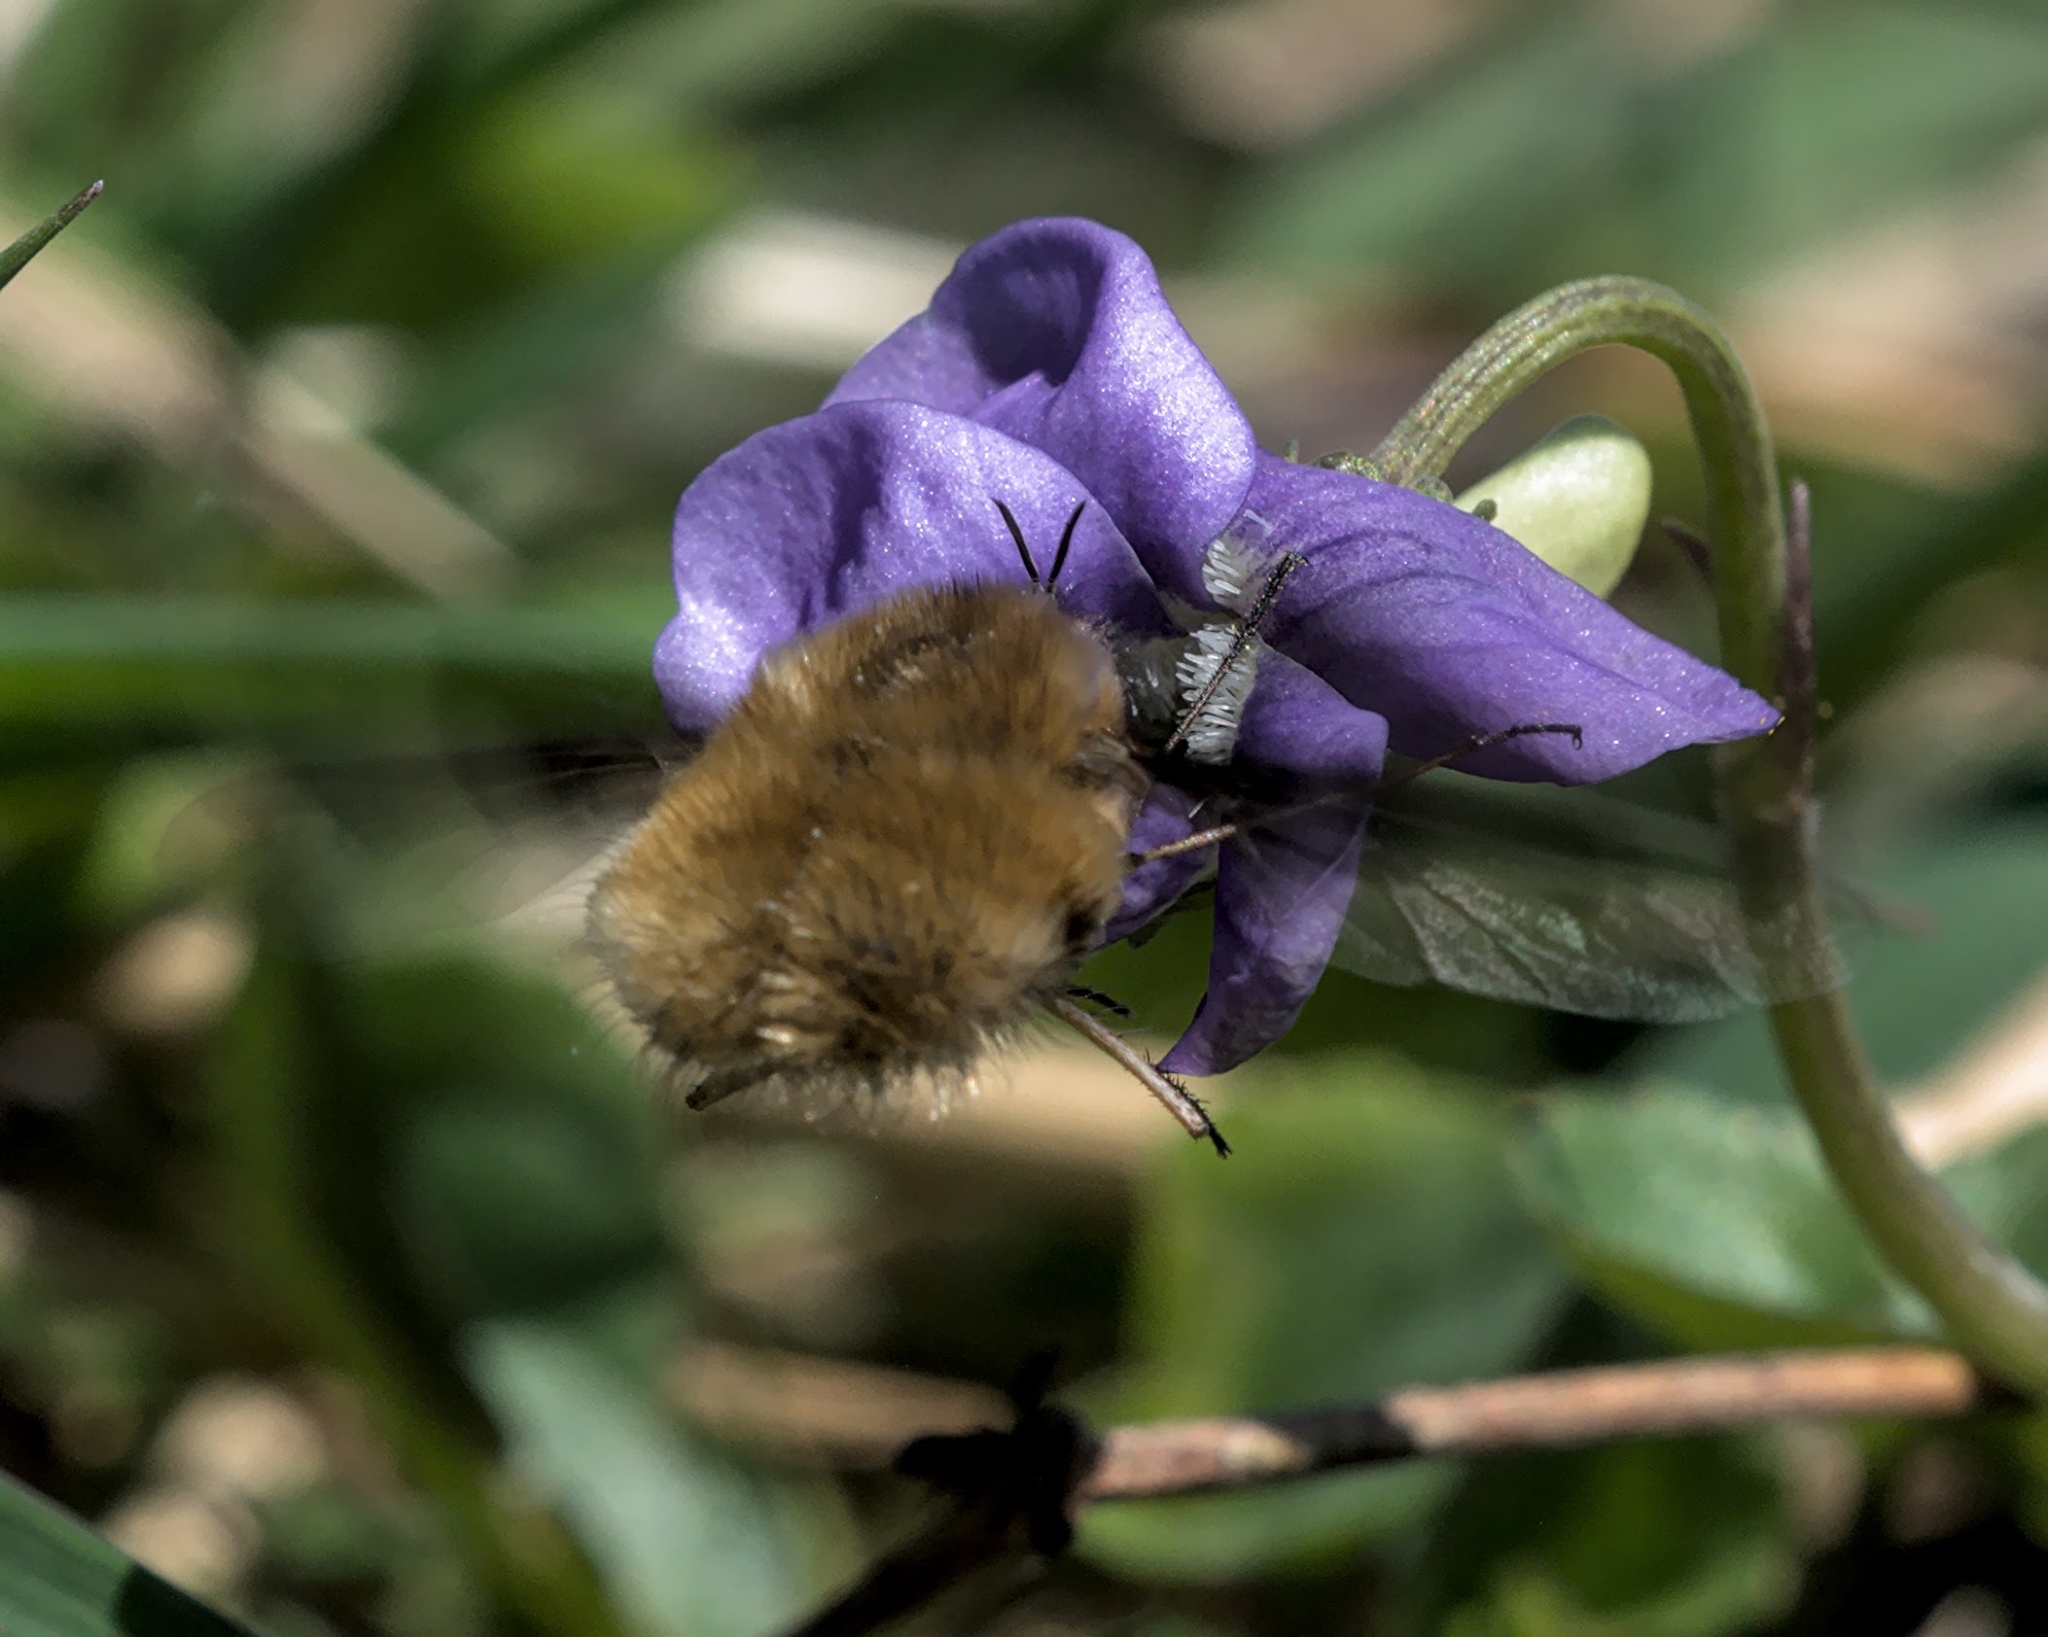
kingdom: Animalia
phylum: Arthropoda
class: Insecta
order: Diptera
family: Bombyliidae
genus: Bombylius
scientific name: Bombylius major
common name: Bee fly
